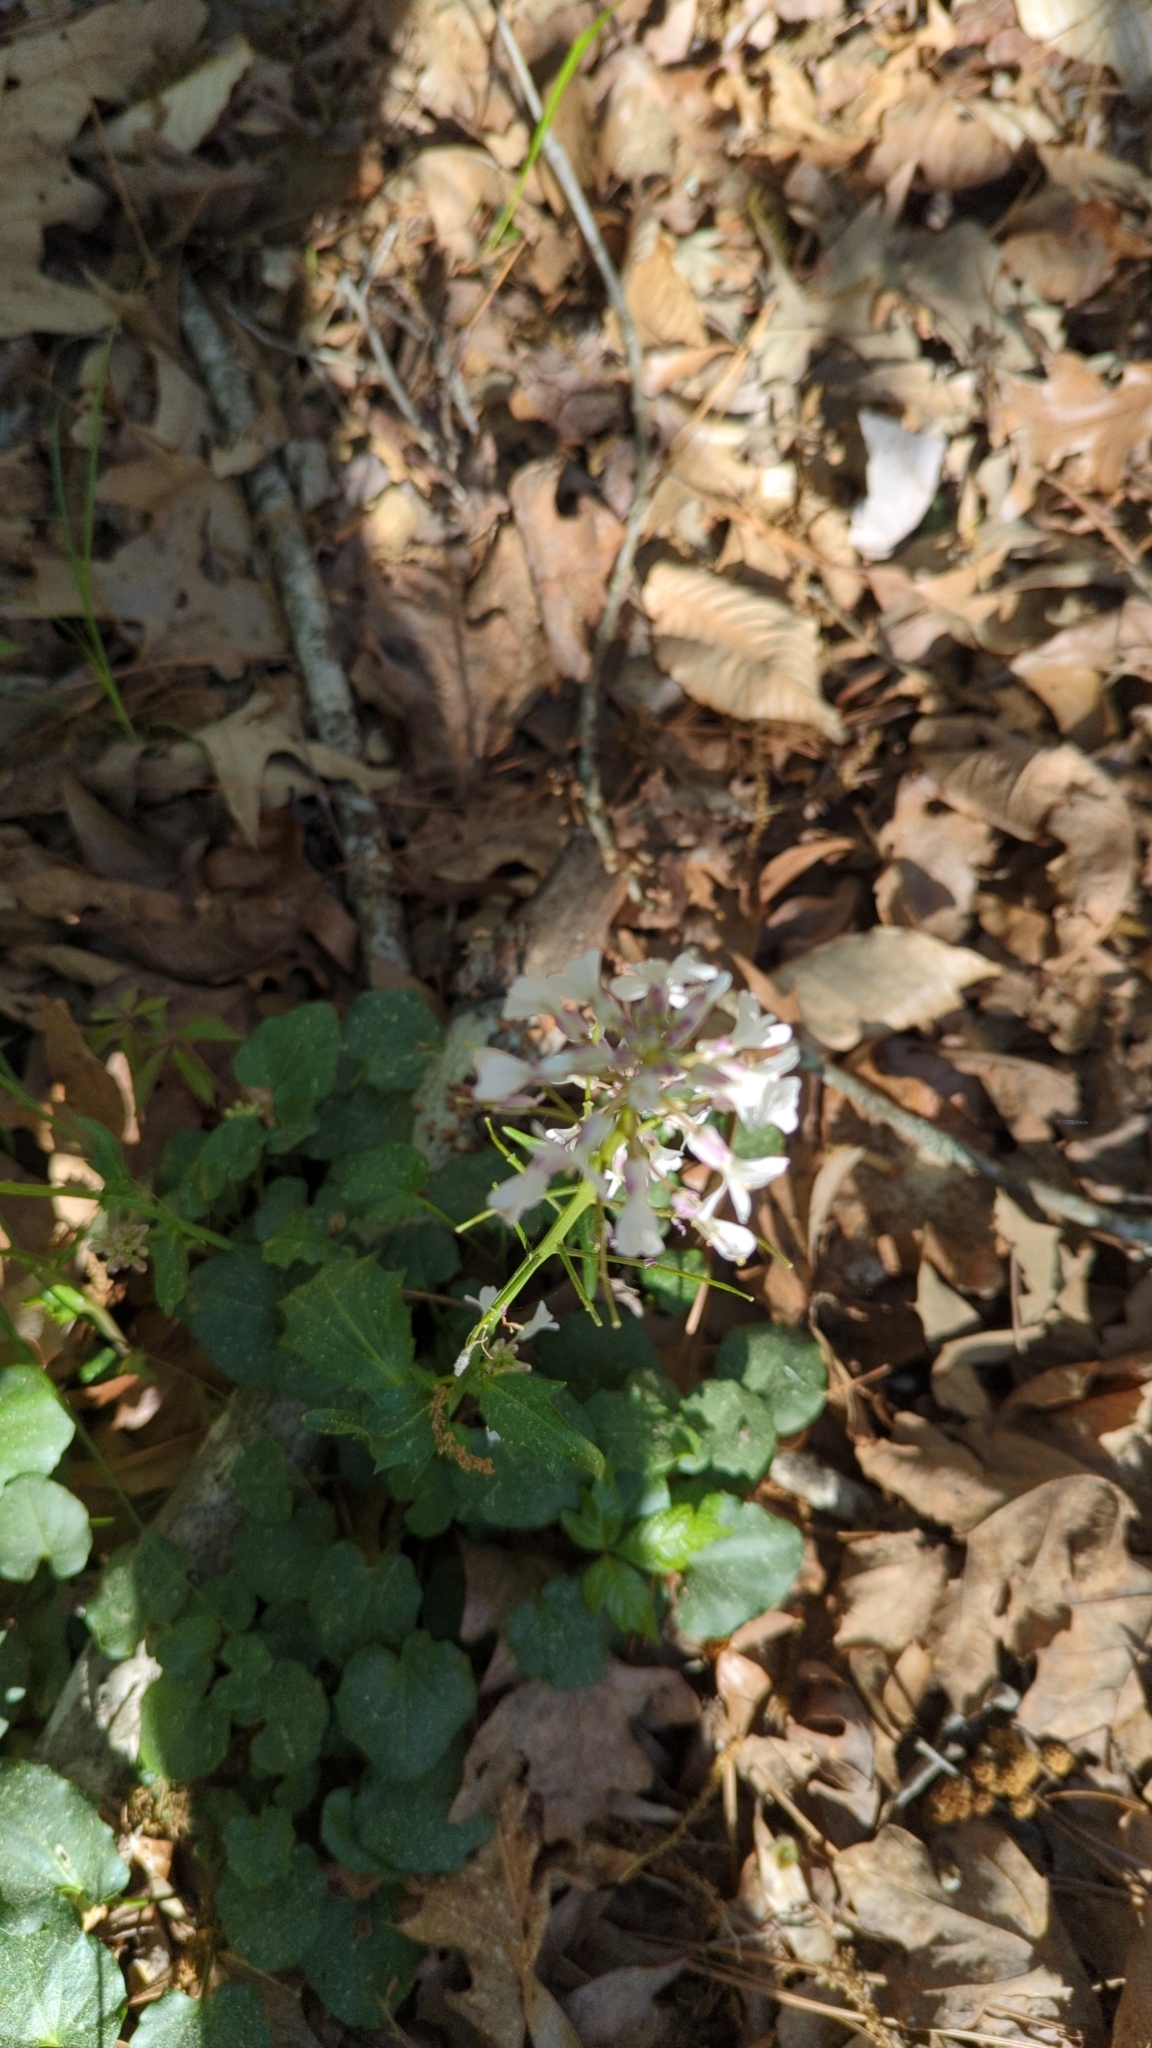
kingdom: Plantae
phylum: Tracheophyta
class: Magnoliopsida
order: Brassicales
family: Brassicaceae
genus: Cardamine
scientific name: Cardamine bulbosa
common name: Spring cress
